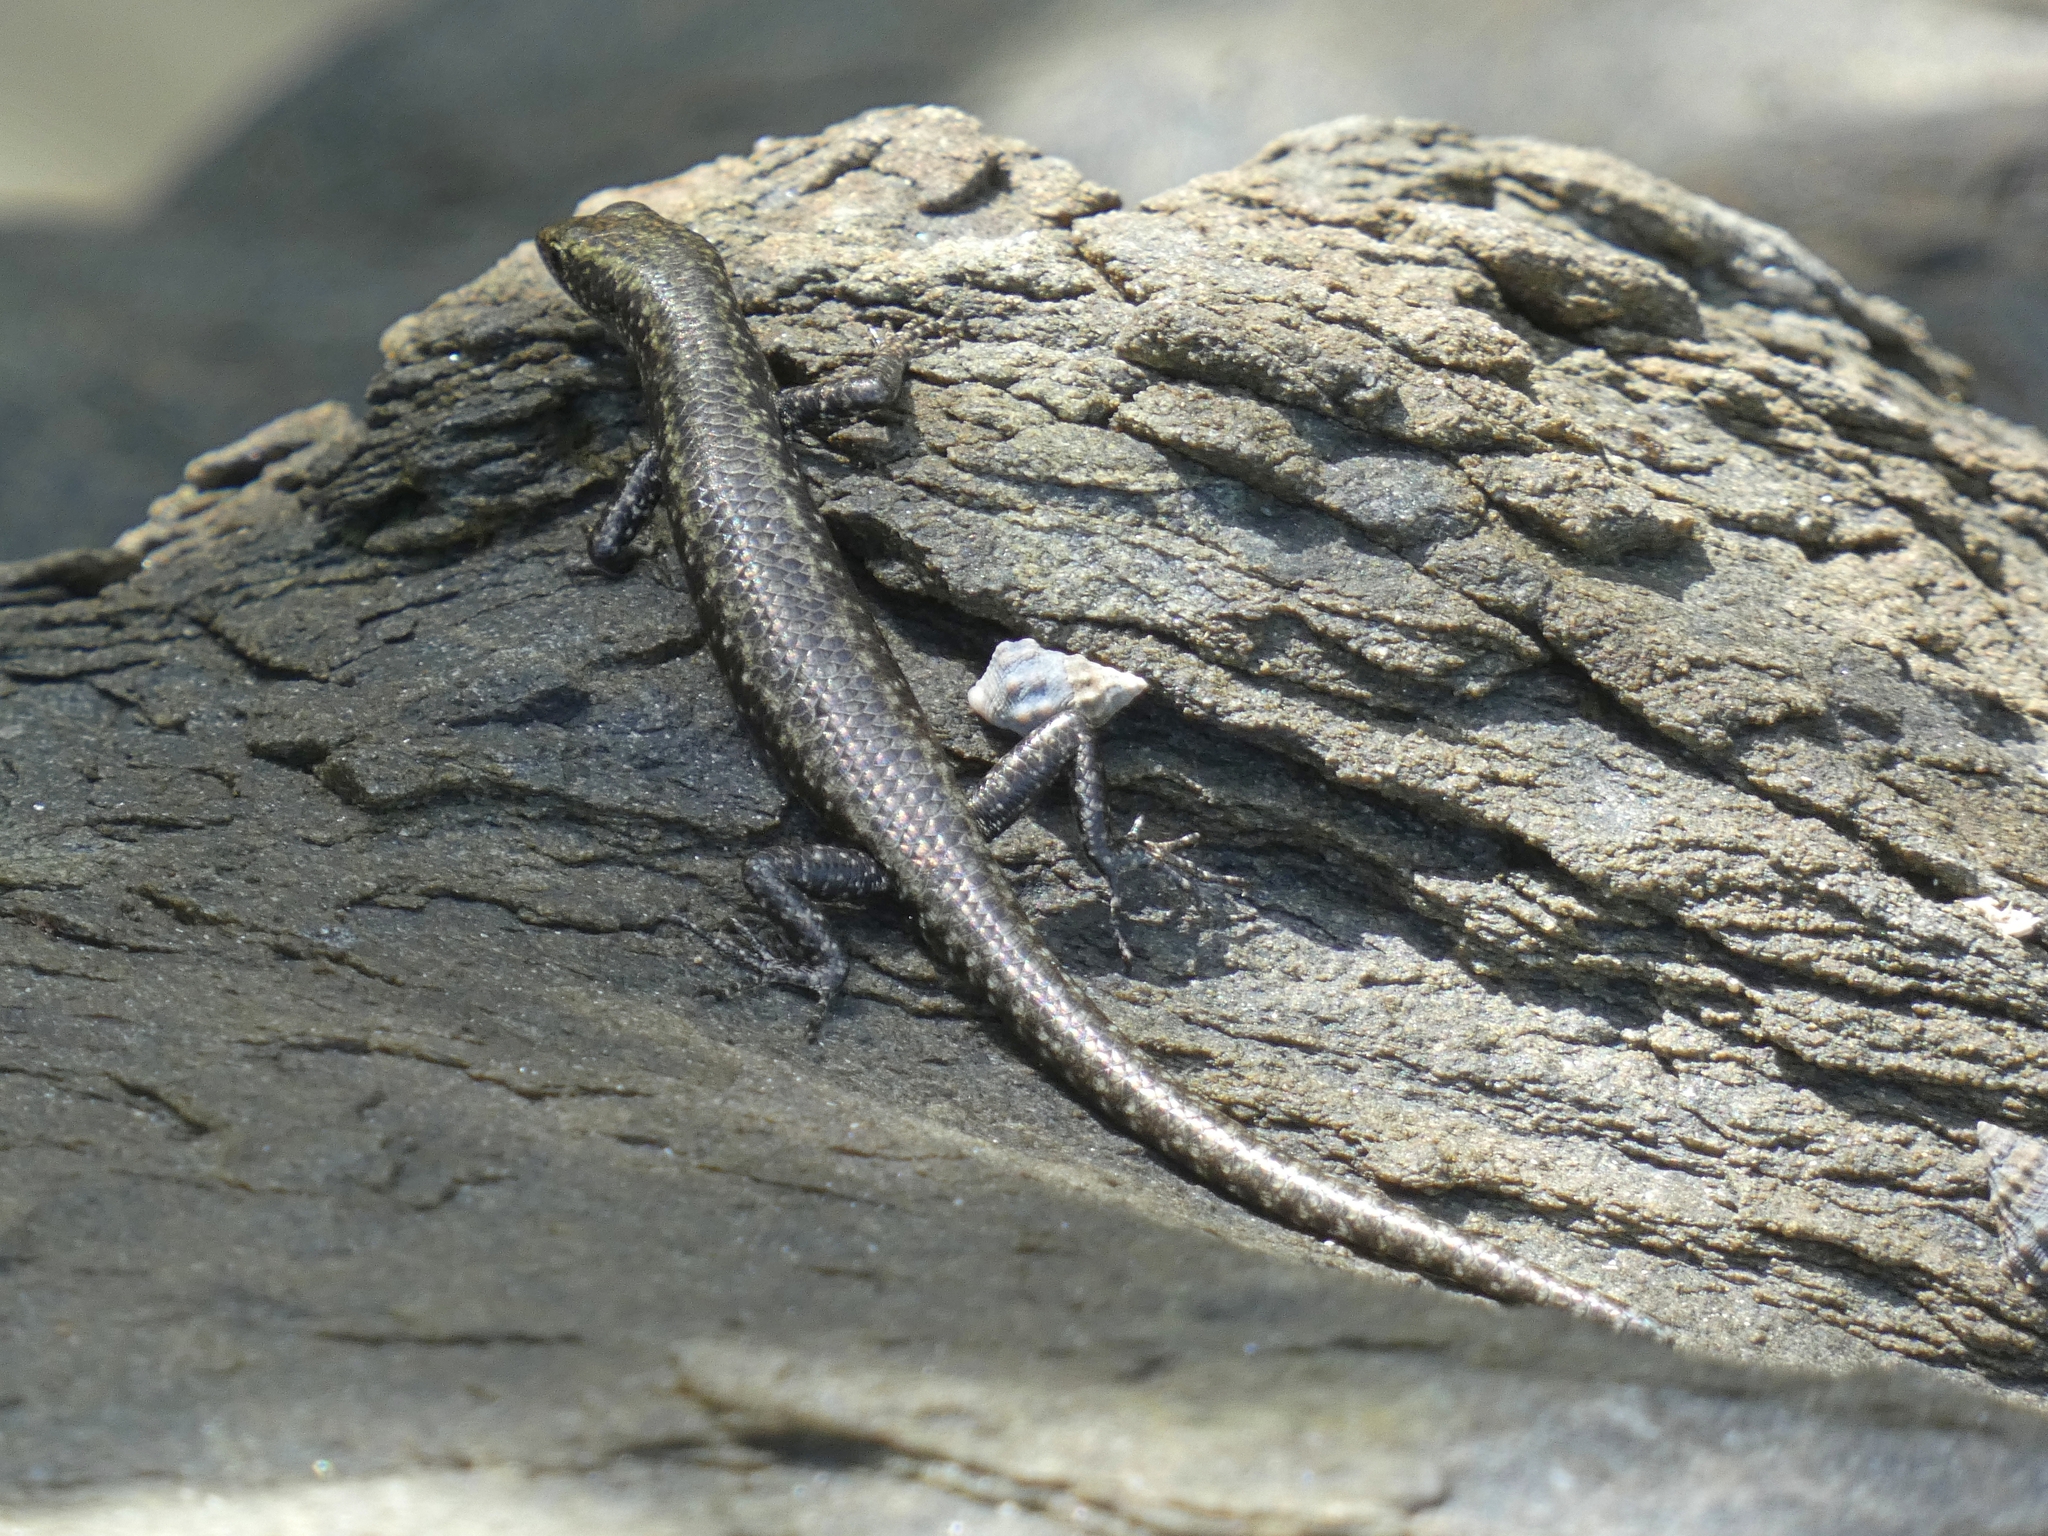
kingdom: Animalia
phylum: Chordata
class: Squamata
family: Scincidae
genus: Cryptoblepharus
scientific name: Cryptoblepharus litoralis
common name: Coastal snake-eyed skink
